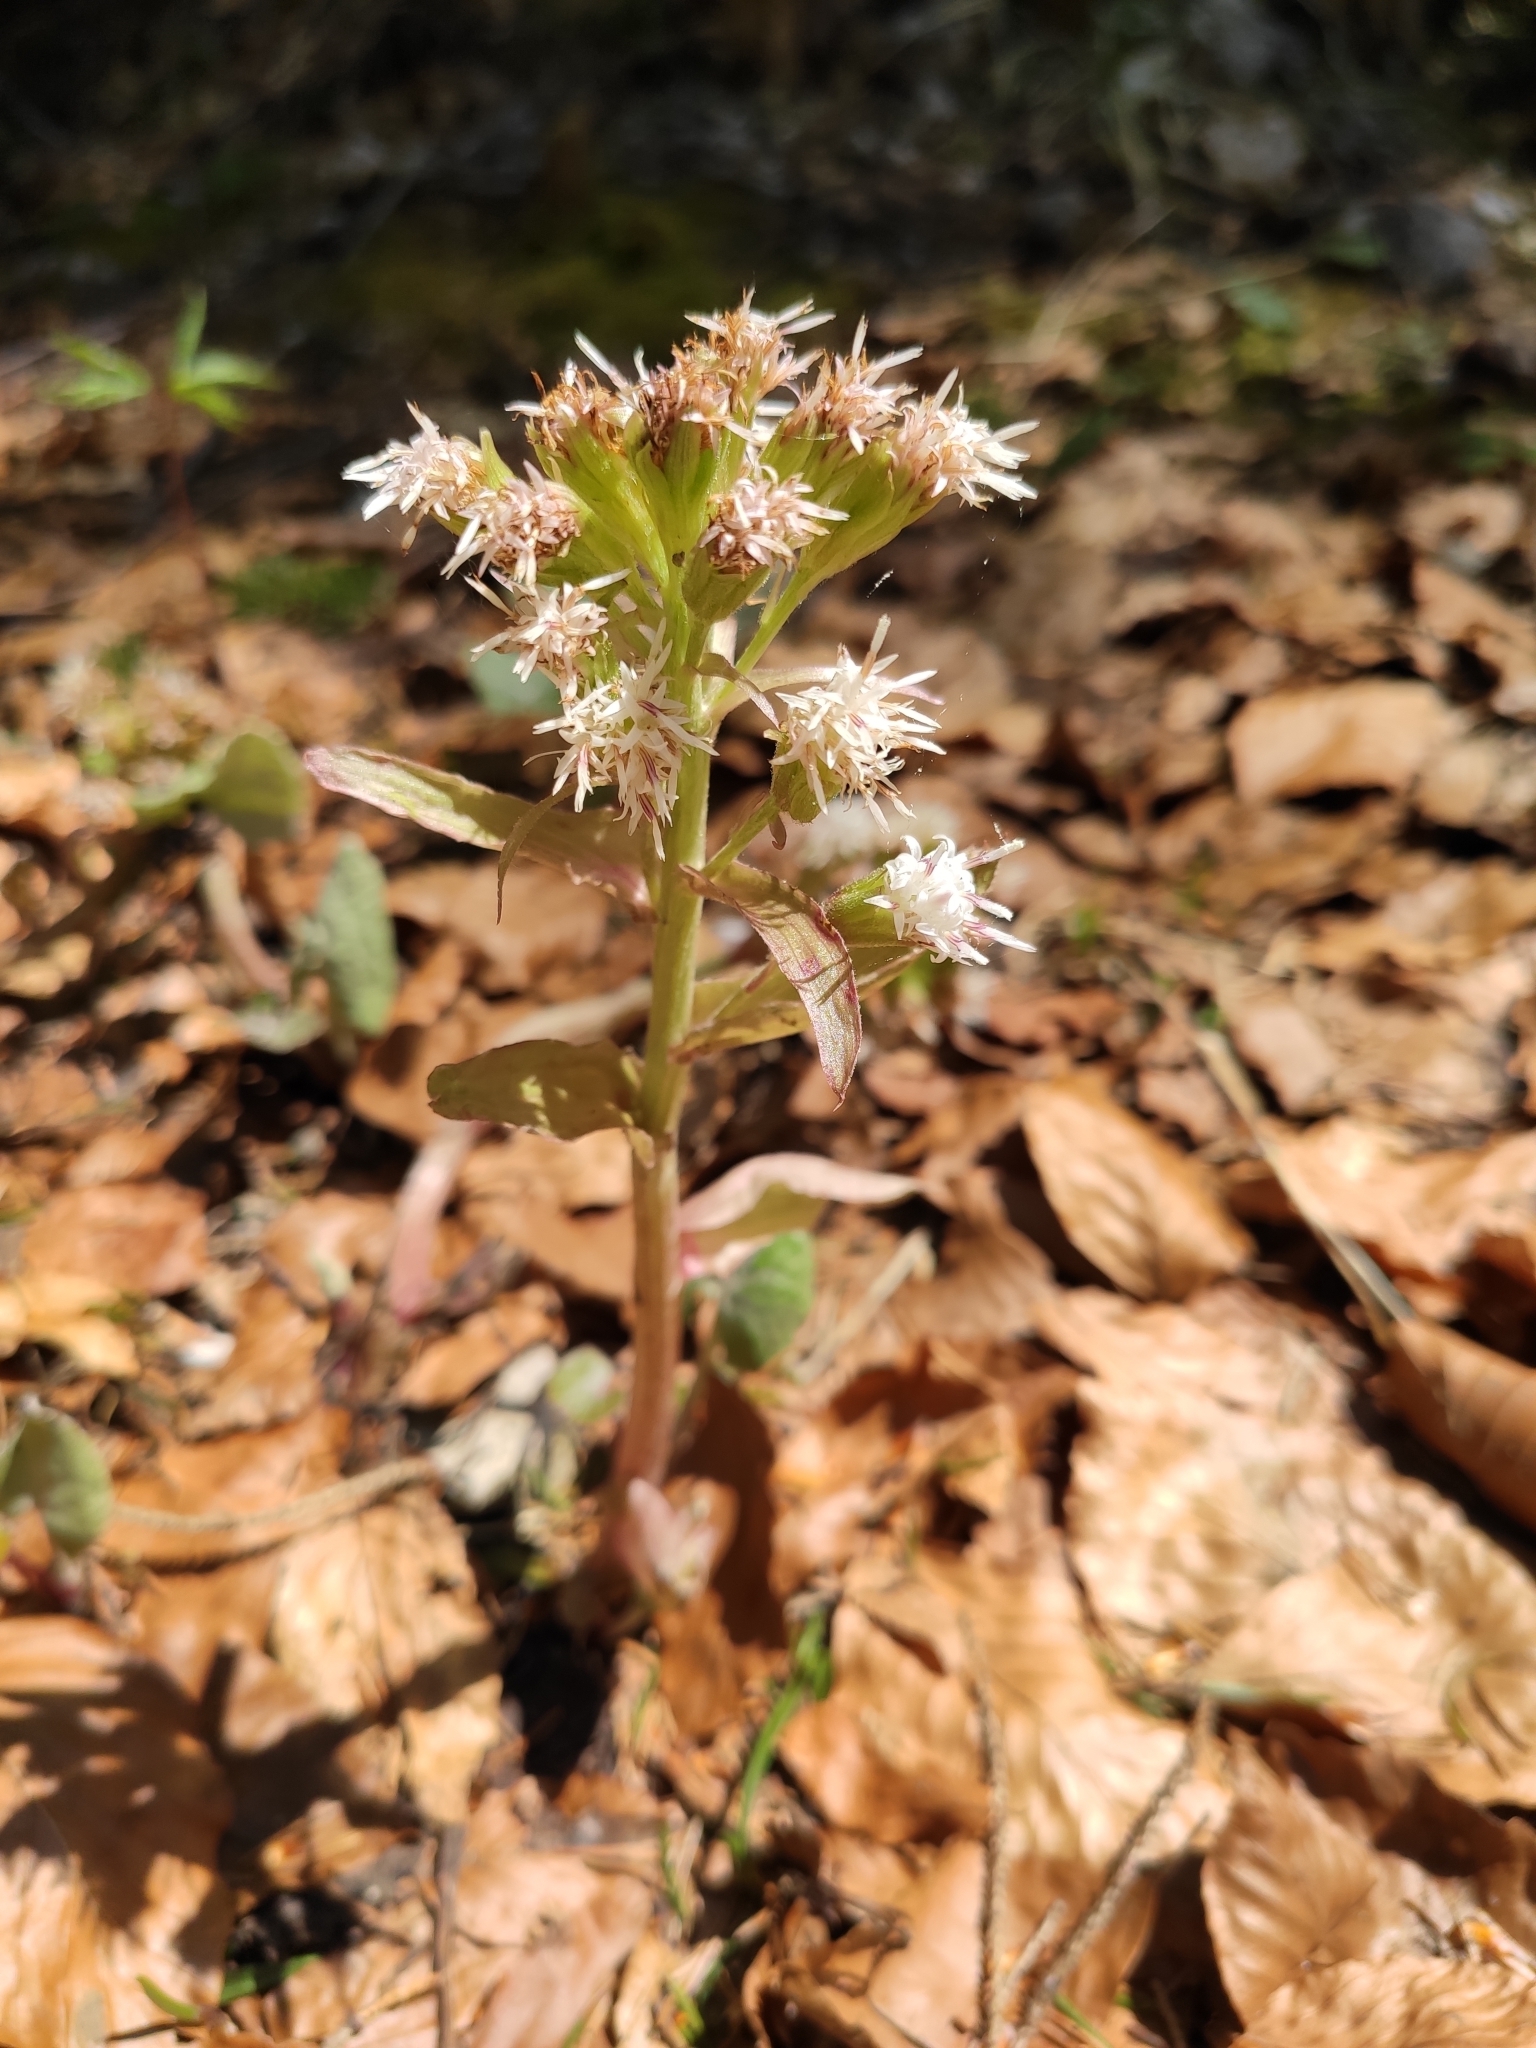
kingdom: Plantae
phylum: Tracheophyta
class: Magnoliopsida
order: Asterales
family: Asteraceae
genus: Petasites
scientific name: Petasites albus
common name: White butterbur
